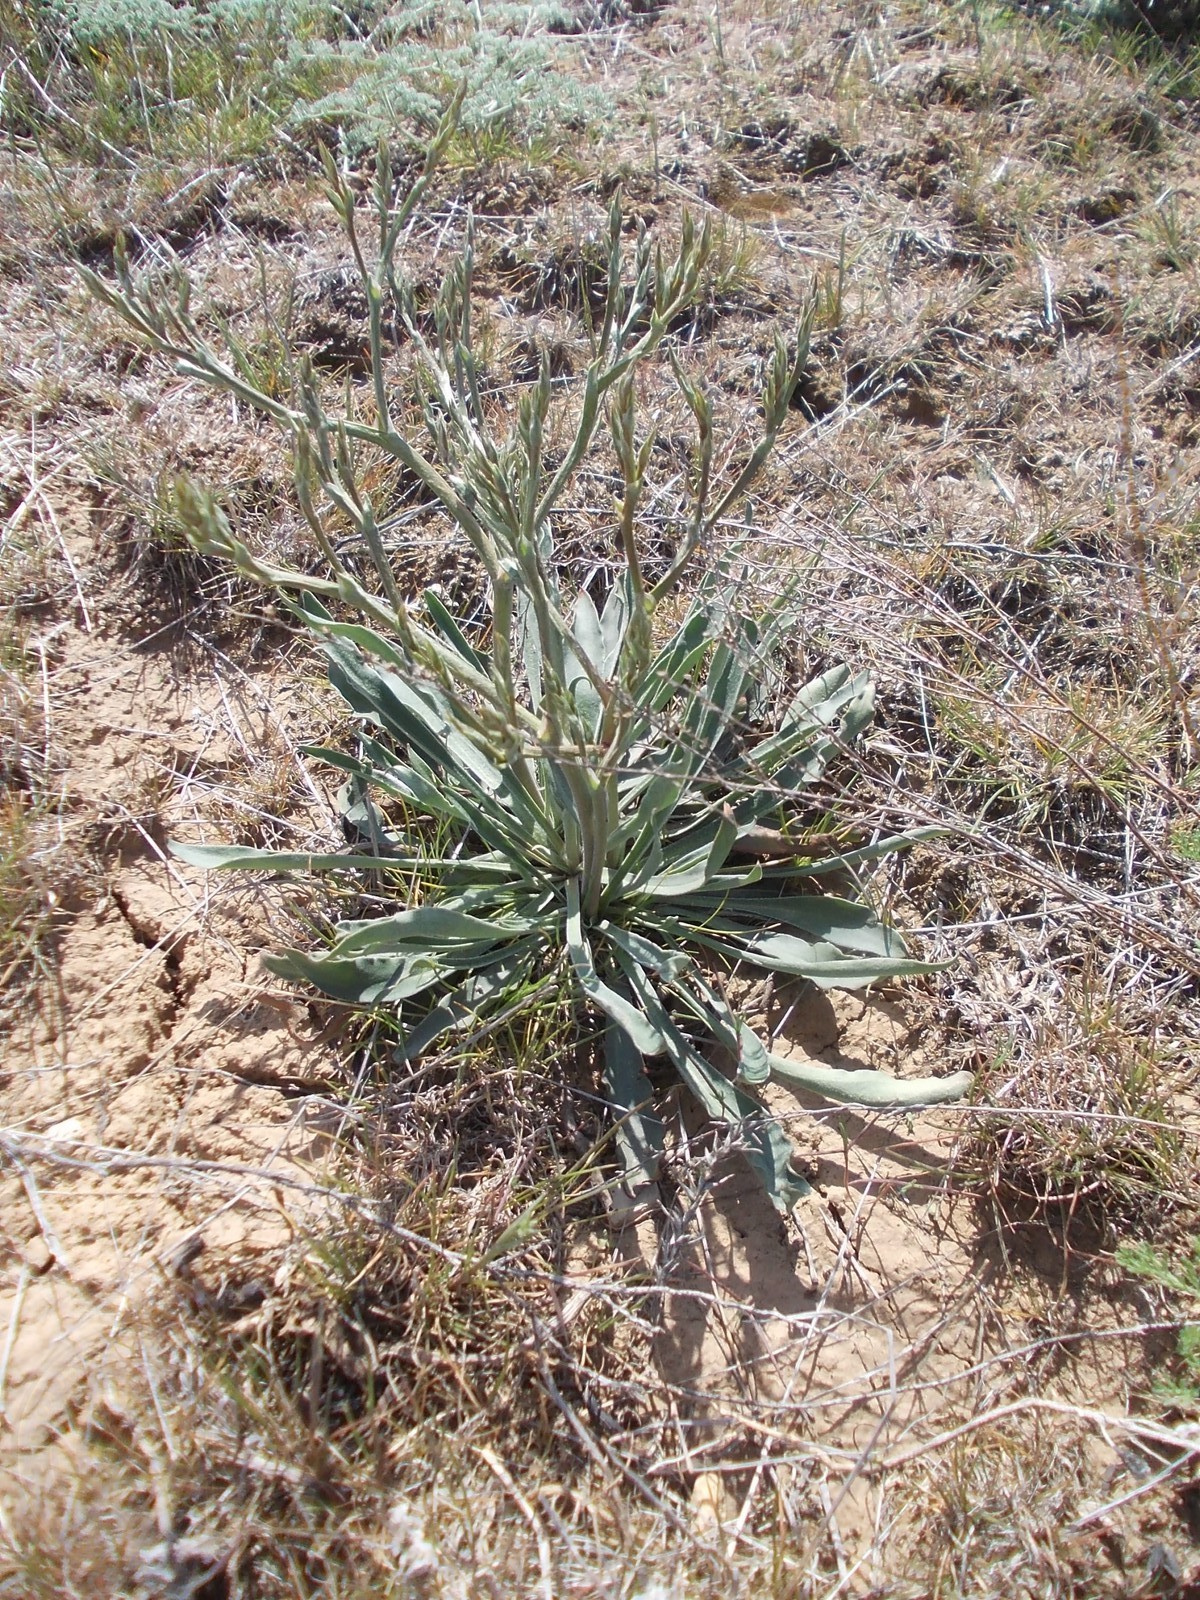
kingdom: Plantae
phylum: Tracheophyta
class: Magnoliopsida
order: Caryophyllales
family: Plumbaginaceae
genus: Goniolimon
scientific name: Goniolimon rubellum
